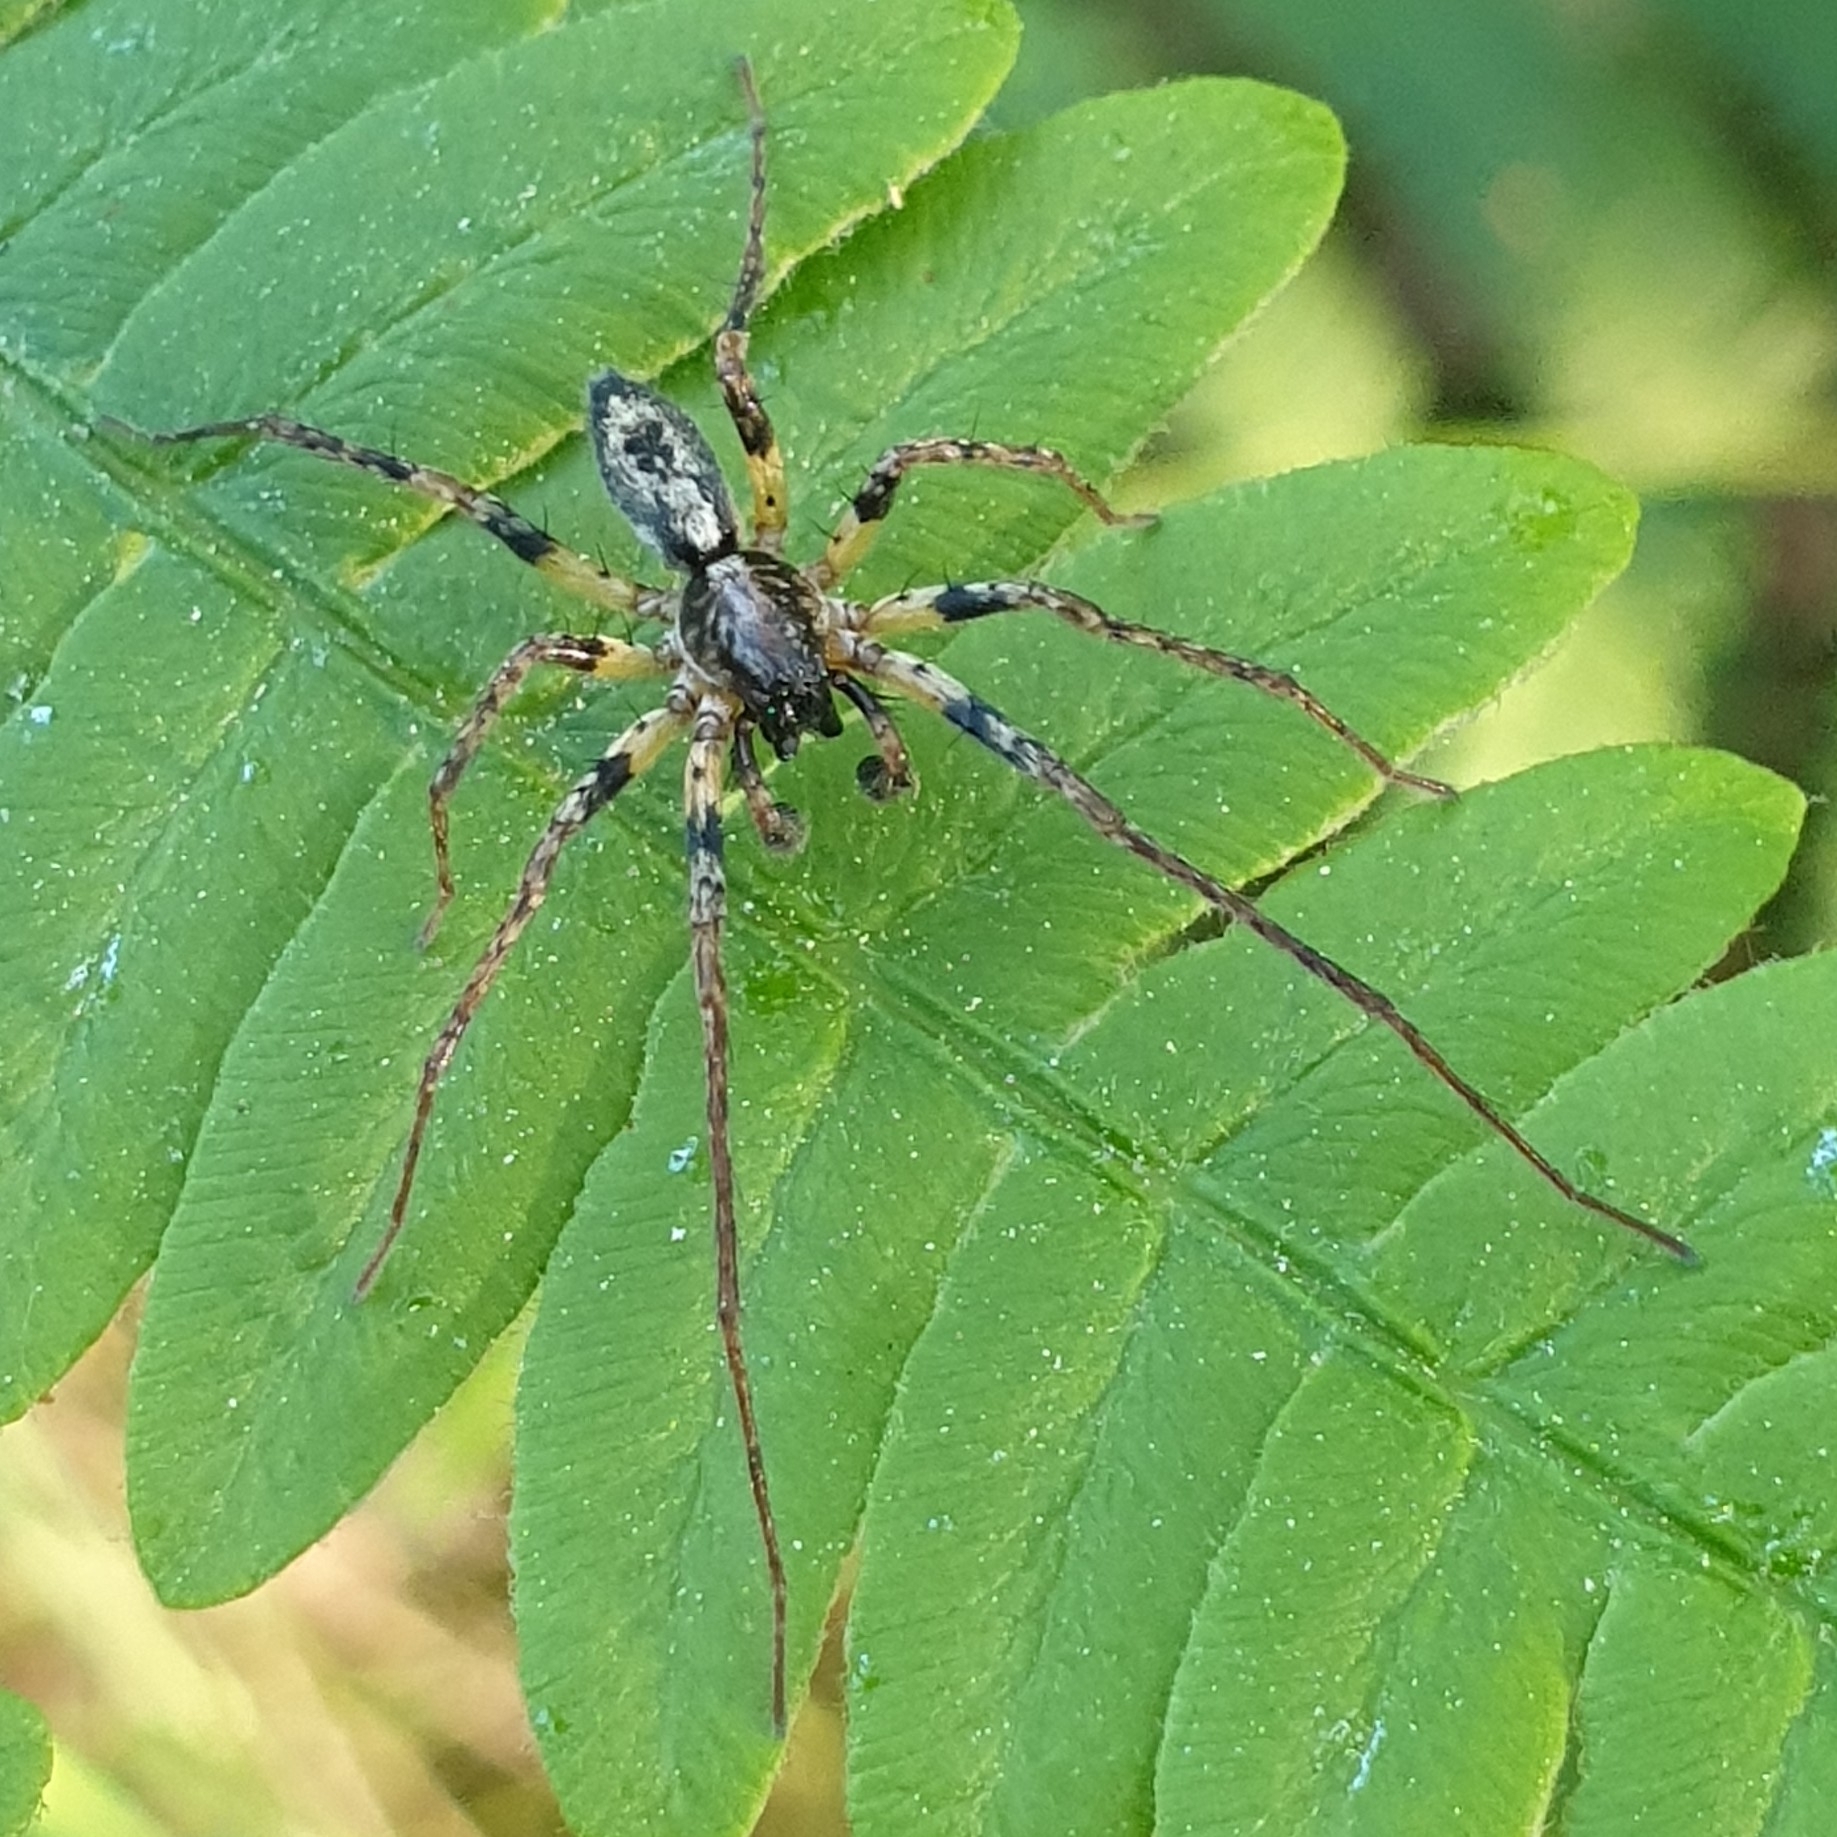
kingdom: Animalia
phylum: Arthropoda
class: Arachnida
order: Araneae
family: Anyphaenidae
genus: Anyphaena
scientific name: Anyphaena accentuata
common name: Buzzing spider
